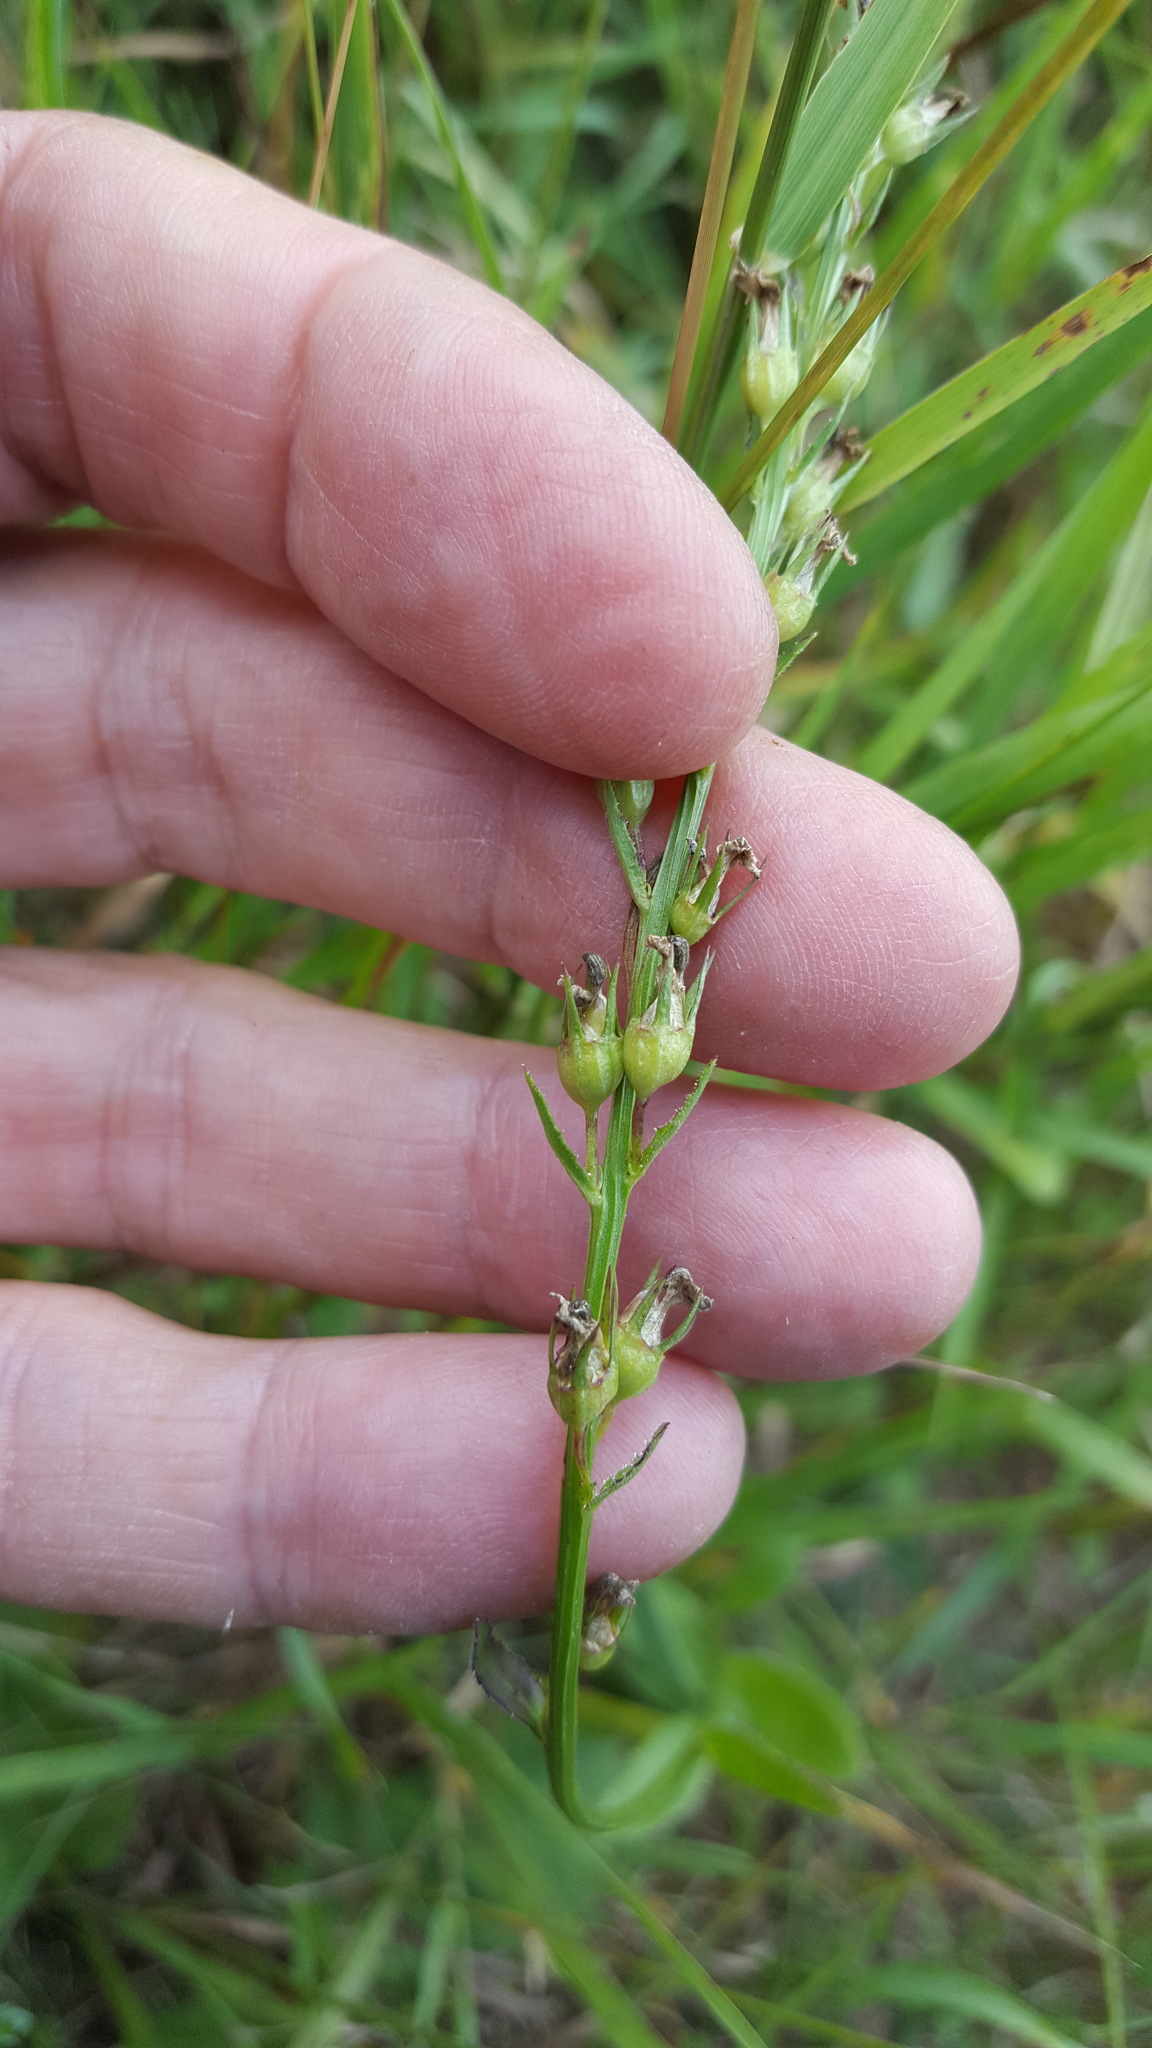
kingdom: Plantae
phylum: Tracheophyta
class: Magnoliopsida
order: Asterales
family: Campanulaceae
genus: Lobelia
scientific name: Lobelia spicata
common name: Pale-spike lobelia
